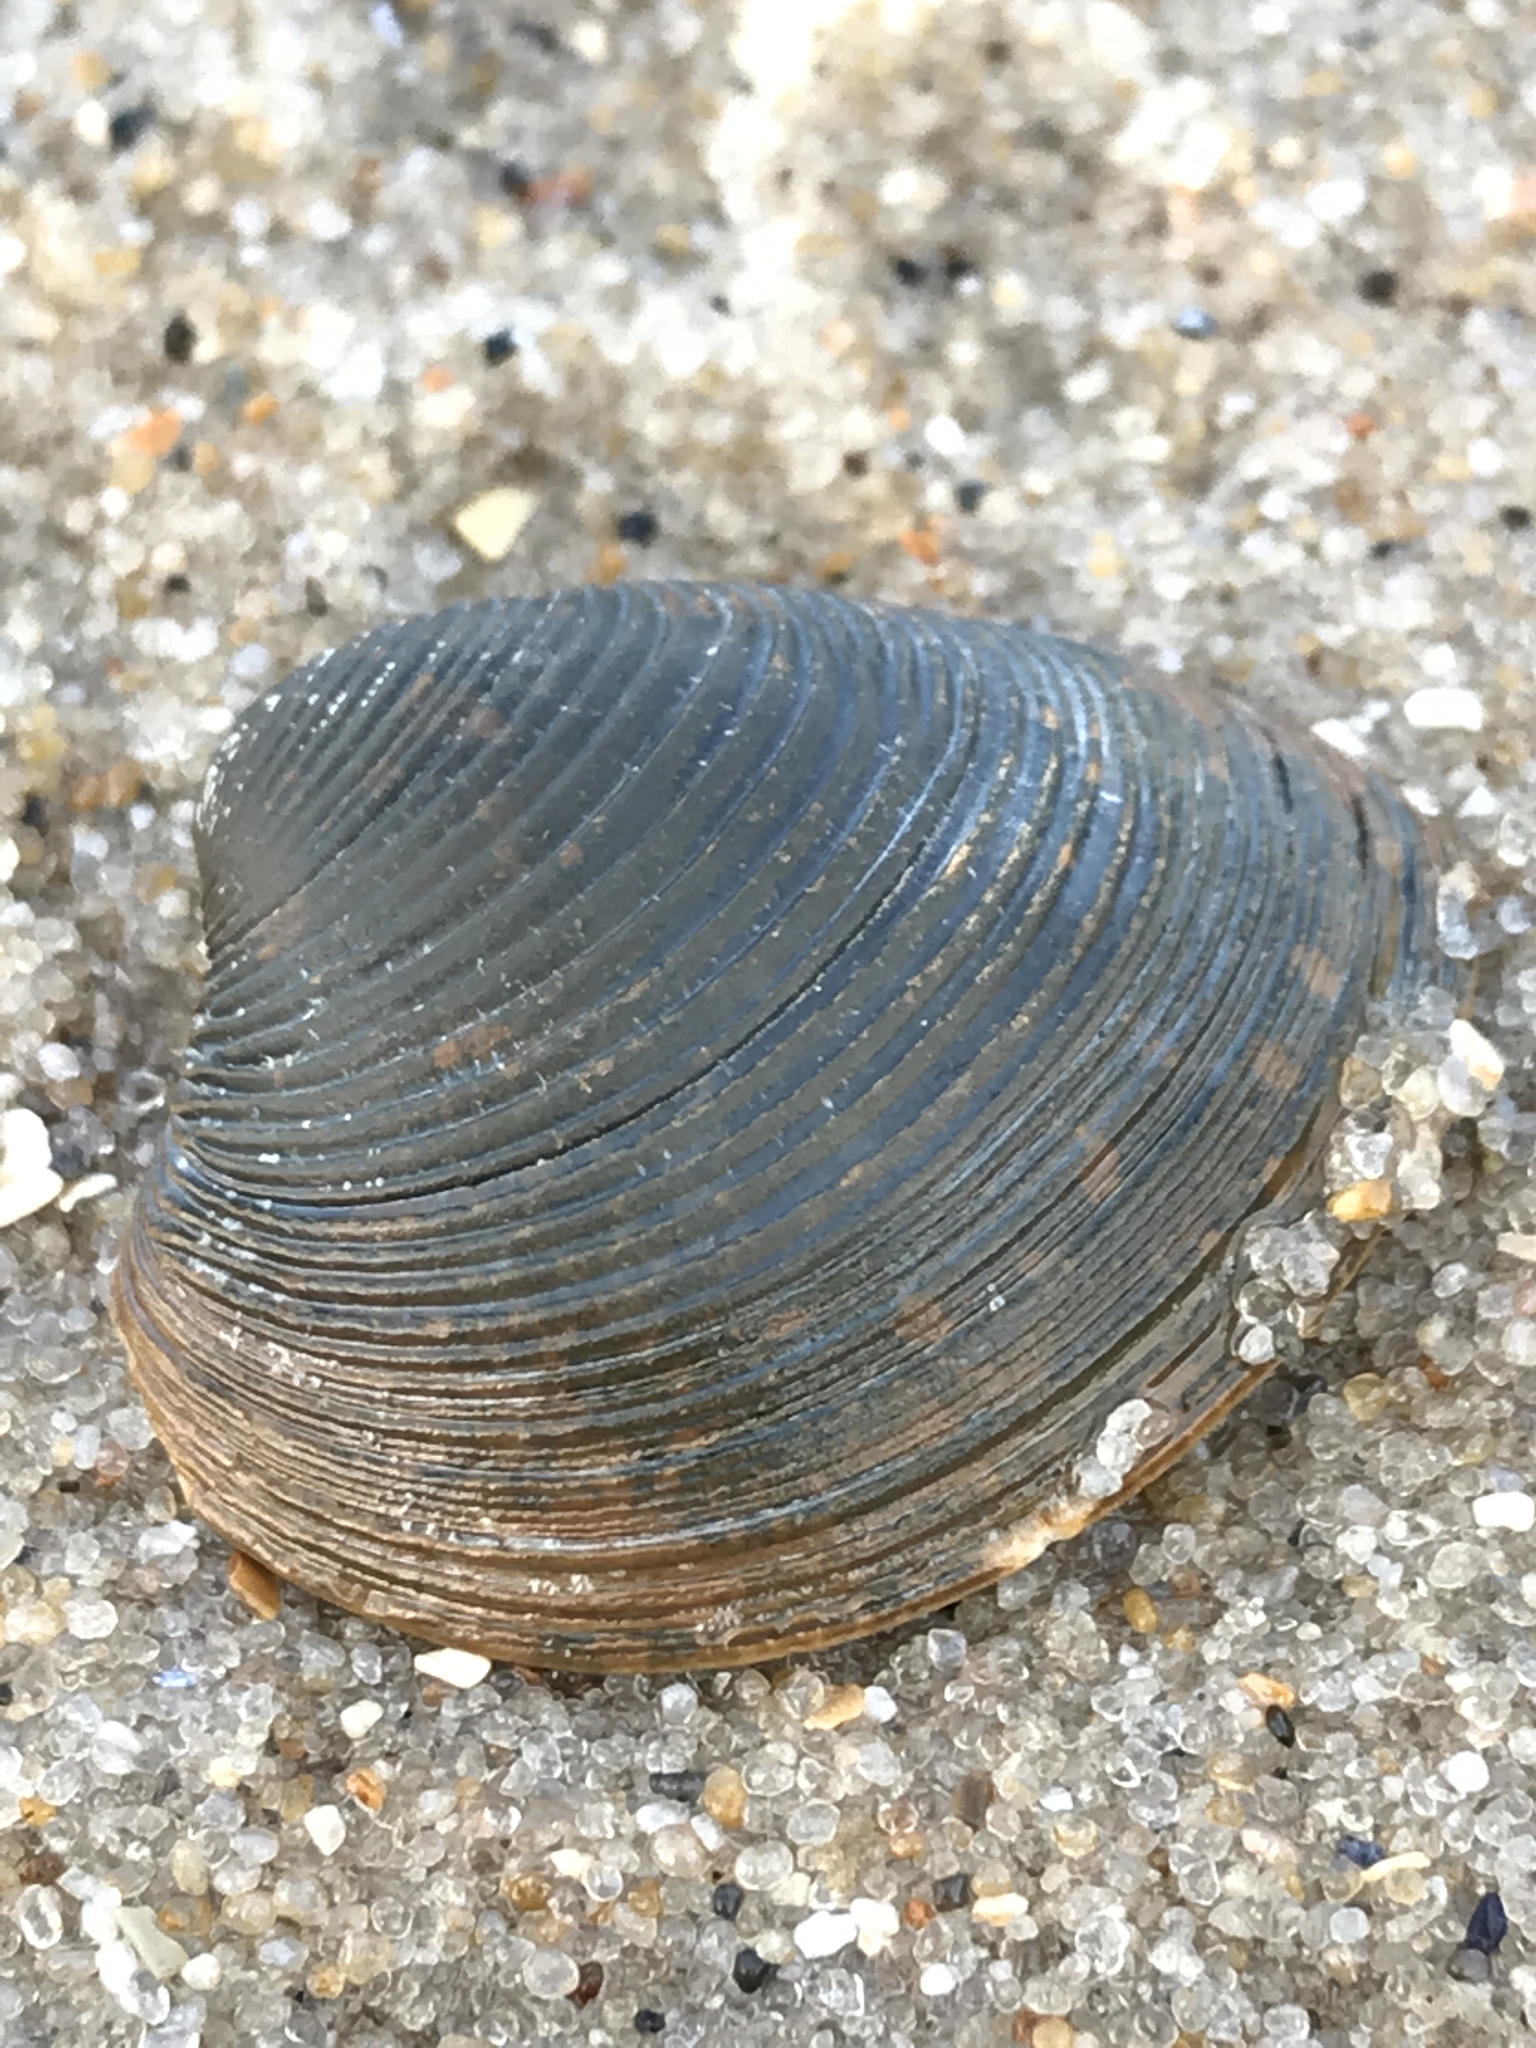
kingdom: Animalia
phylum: Mollusca
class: Bivalvia
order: Venerida
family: Veneridae
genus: Chamelea
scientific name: Chamelea striatula
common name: Striped venus
